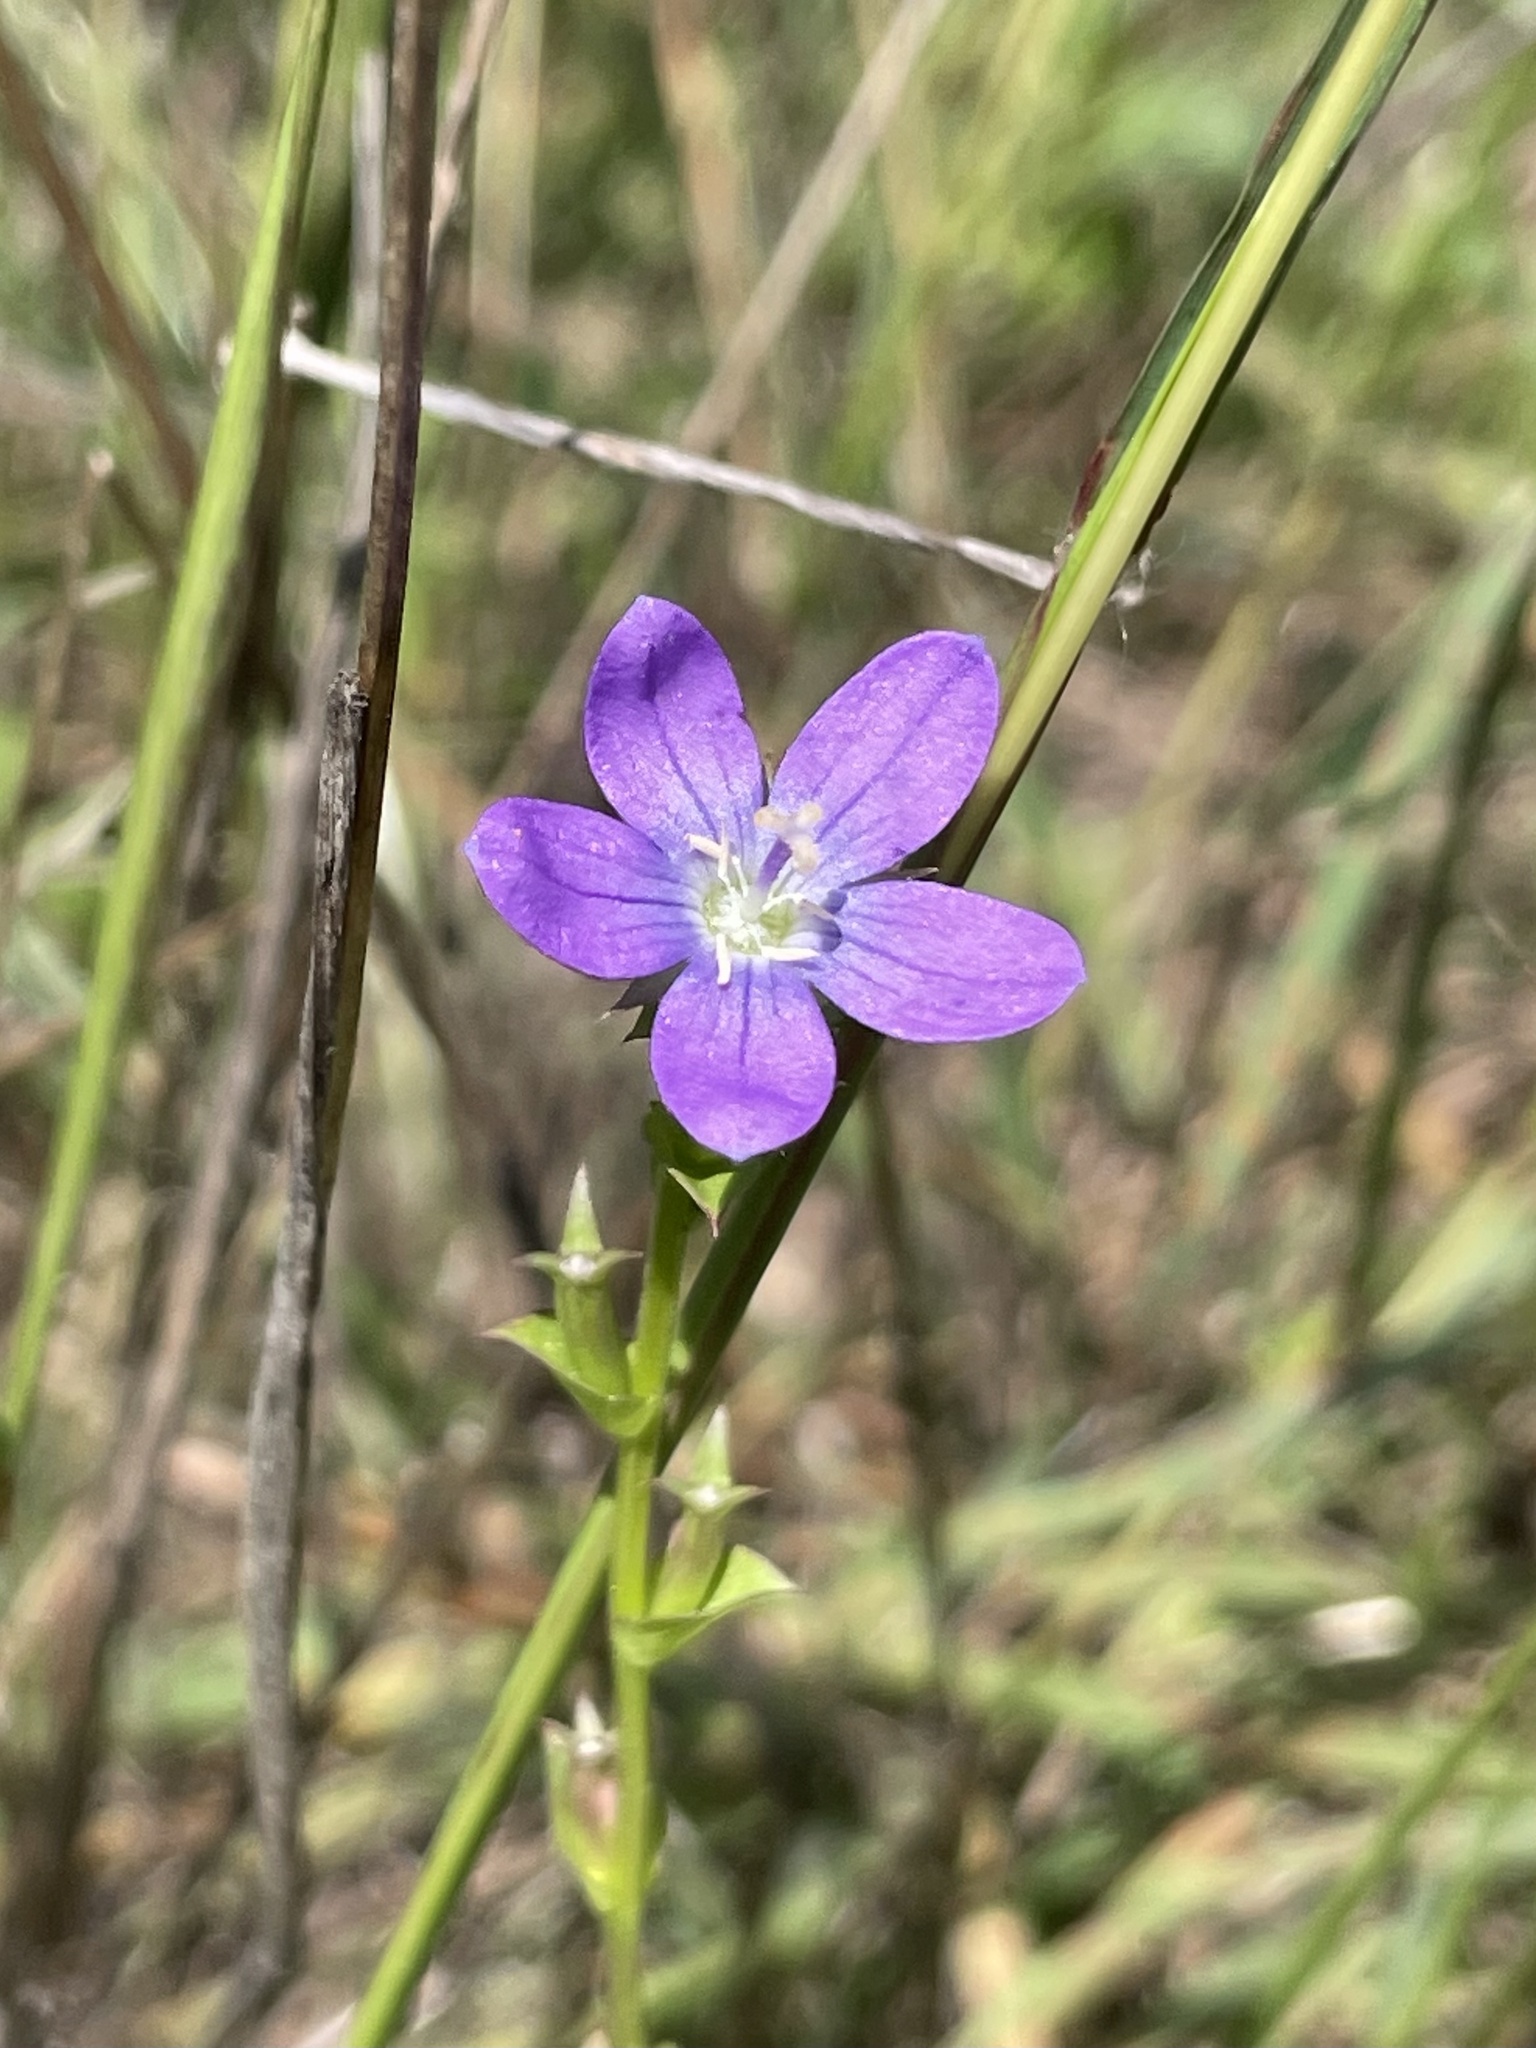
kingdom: Plantae
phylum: Tracheophyta
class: Magnoliopsida
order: Asterales
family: Campanulaceae
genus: Triodanis
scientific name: Triodanis biflora
